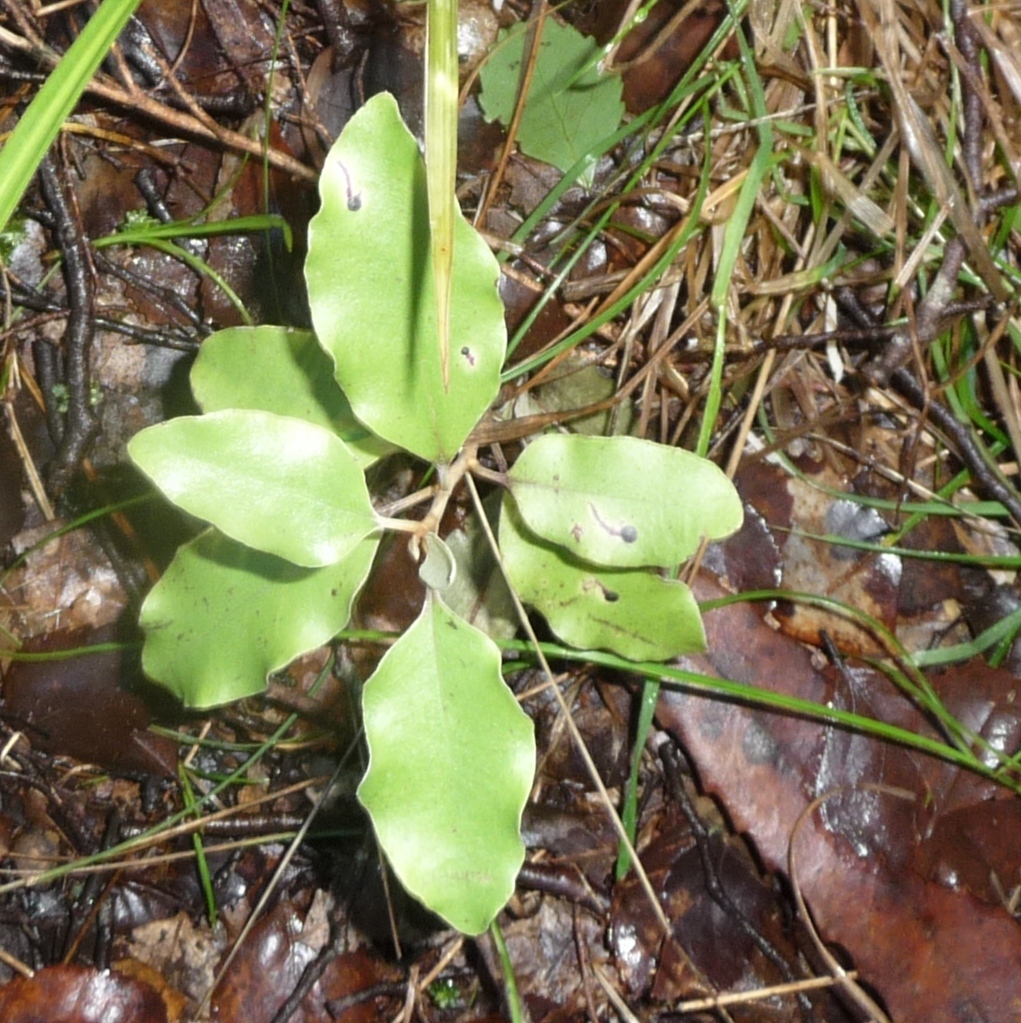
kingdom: Plantae
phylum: Tracheophyta
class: Magnoliopsida
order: Asterales
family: Asteraceae
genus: Olearia
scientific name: Olearia paniculata
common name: Akiraho
